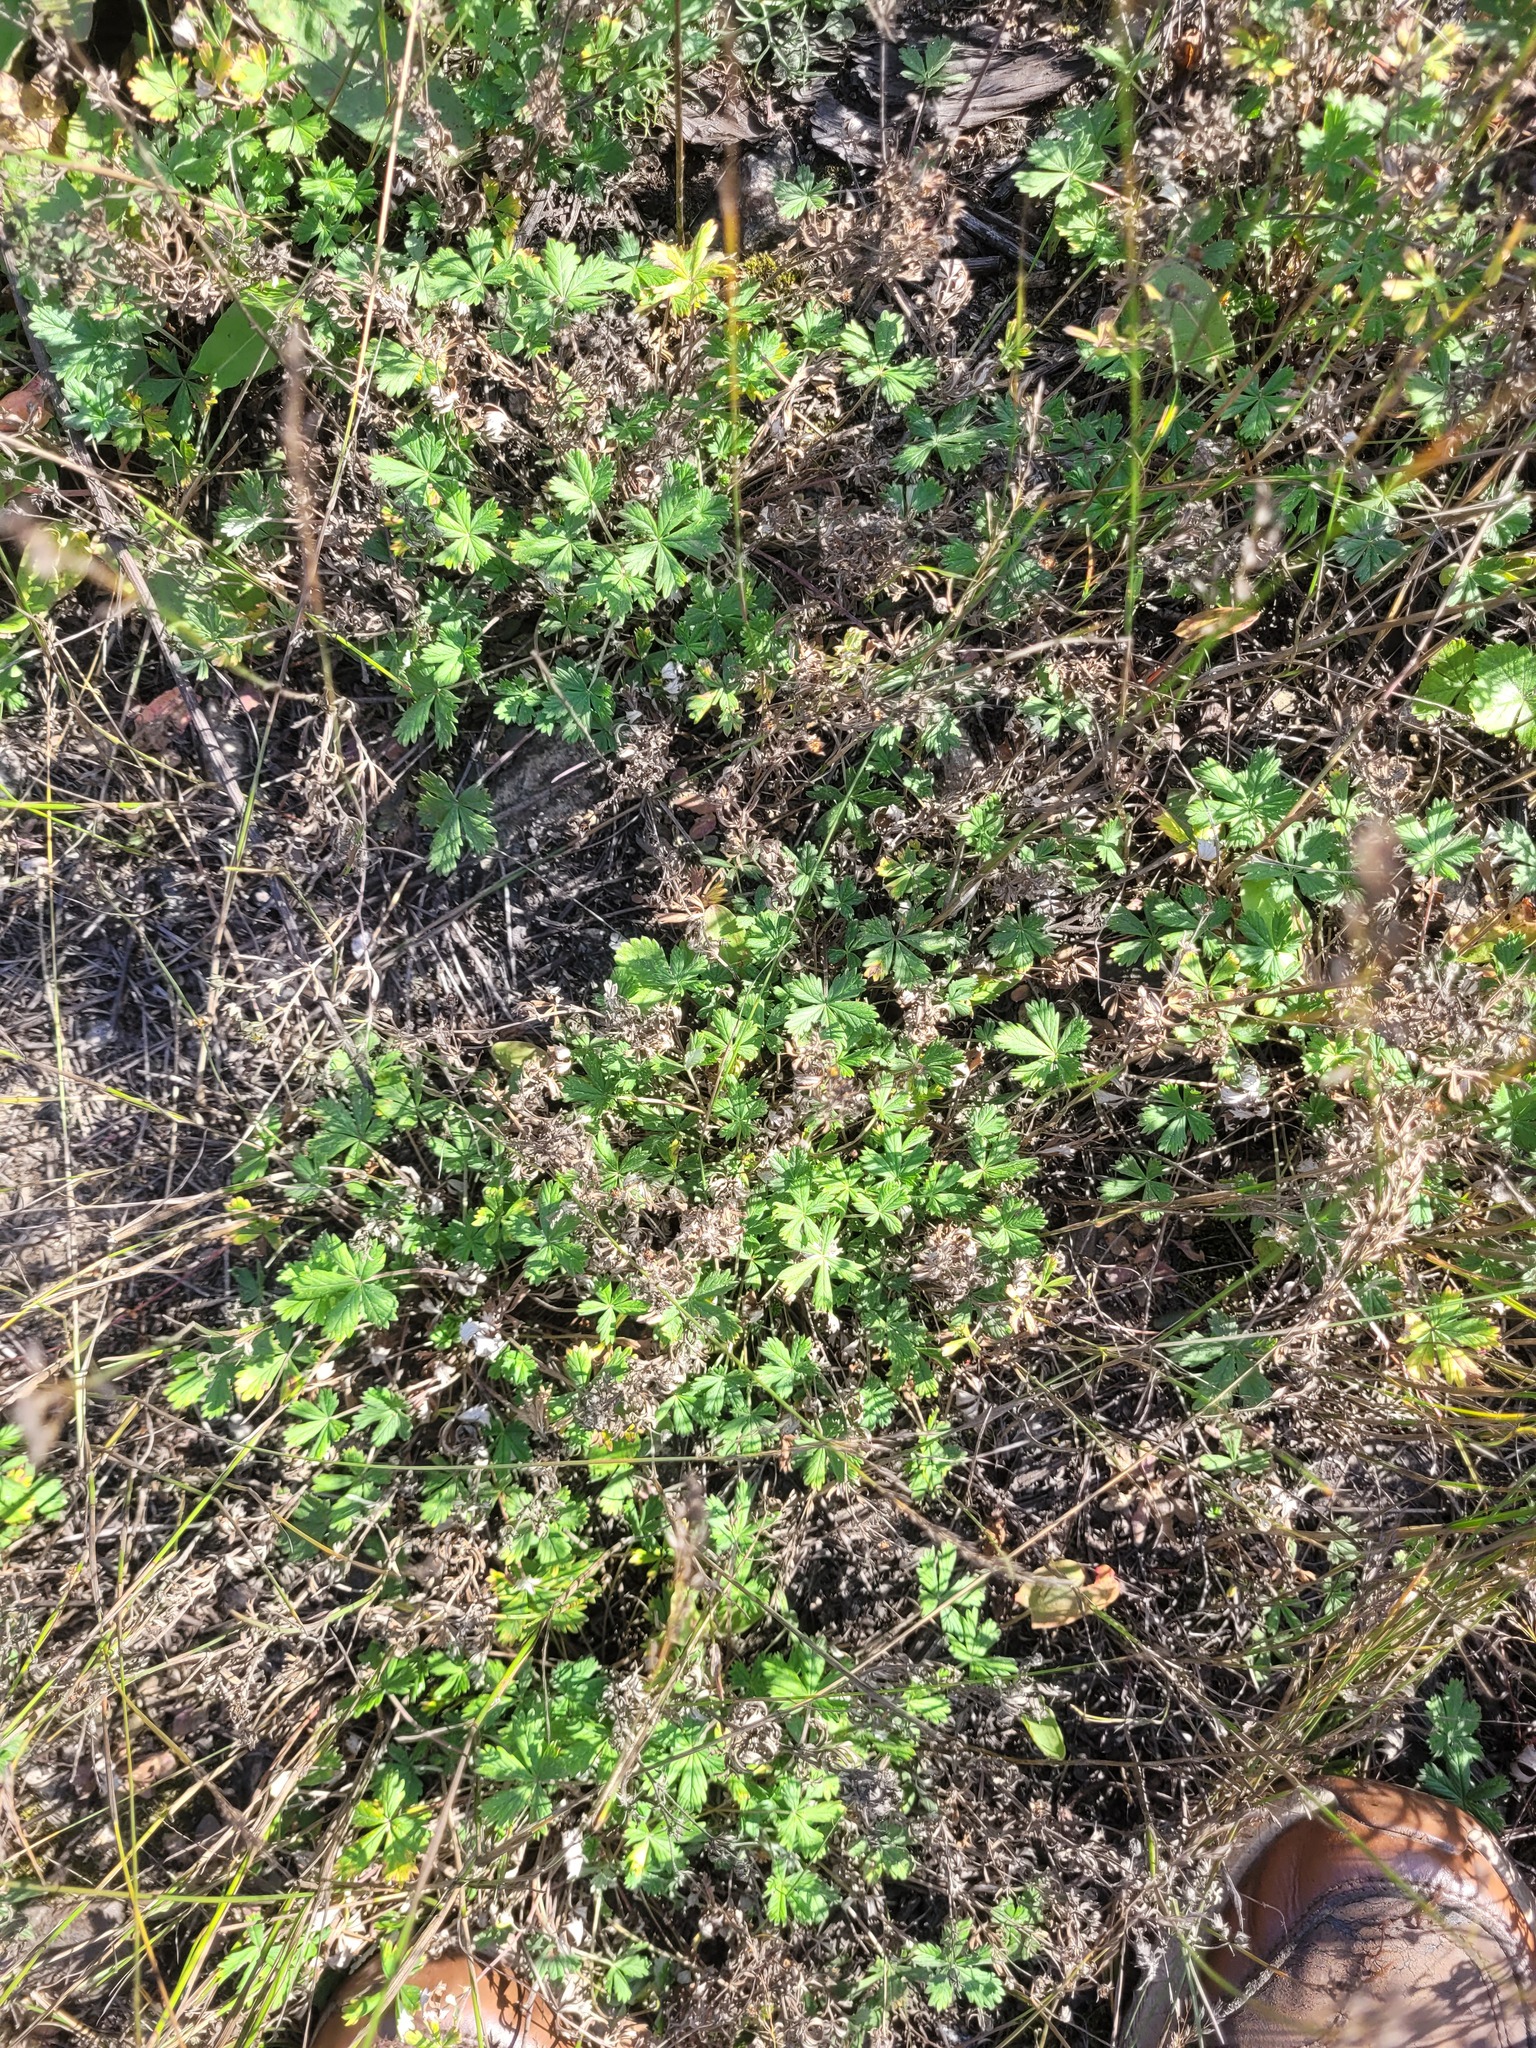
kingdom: Plantae
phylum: Tracheophyta
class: Magnoliopsida
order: Rosales
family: Rosaceae
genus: Potentilla
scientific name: Potentilla argentea
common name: Hoary cinquefoil
